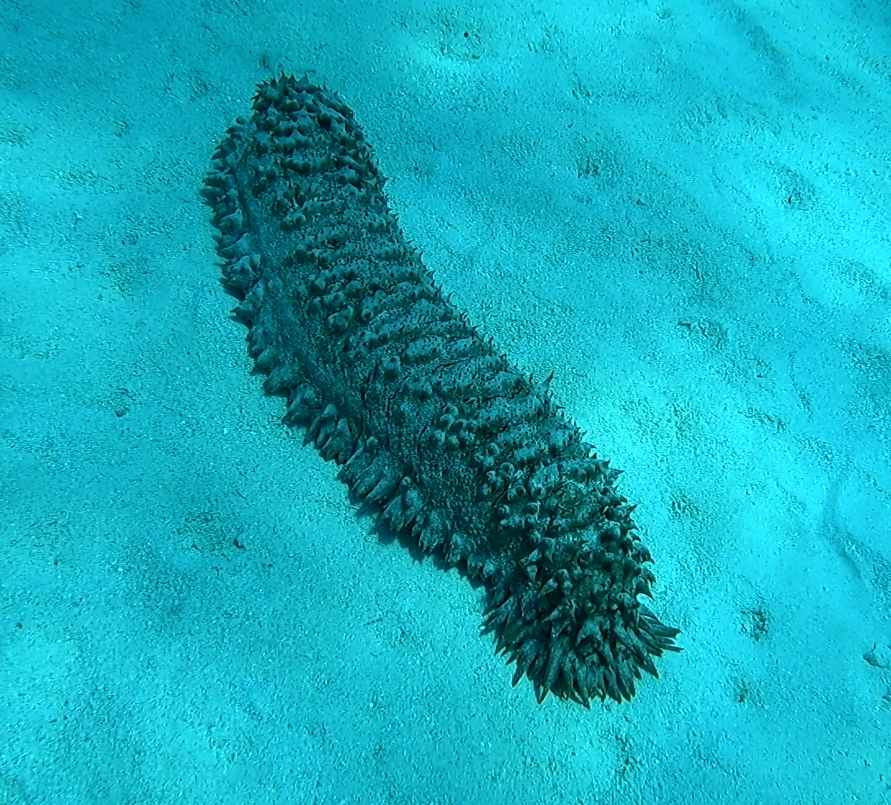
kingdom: Animalia
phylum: Echinodermata
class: Holothuroidea
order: Synallactida
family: Stichopodidae
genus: Thelenota
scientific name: Thelenota ananas
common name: Prickly redfish
